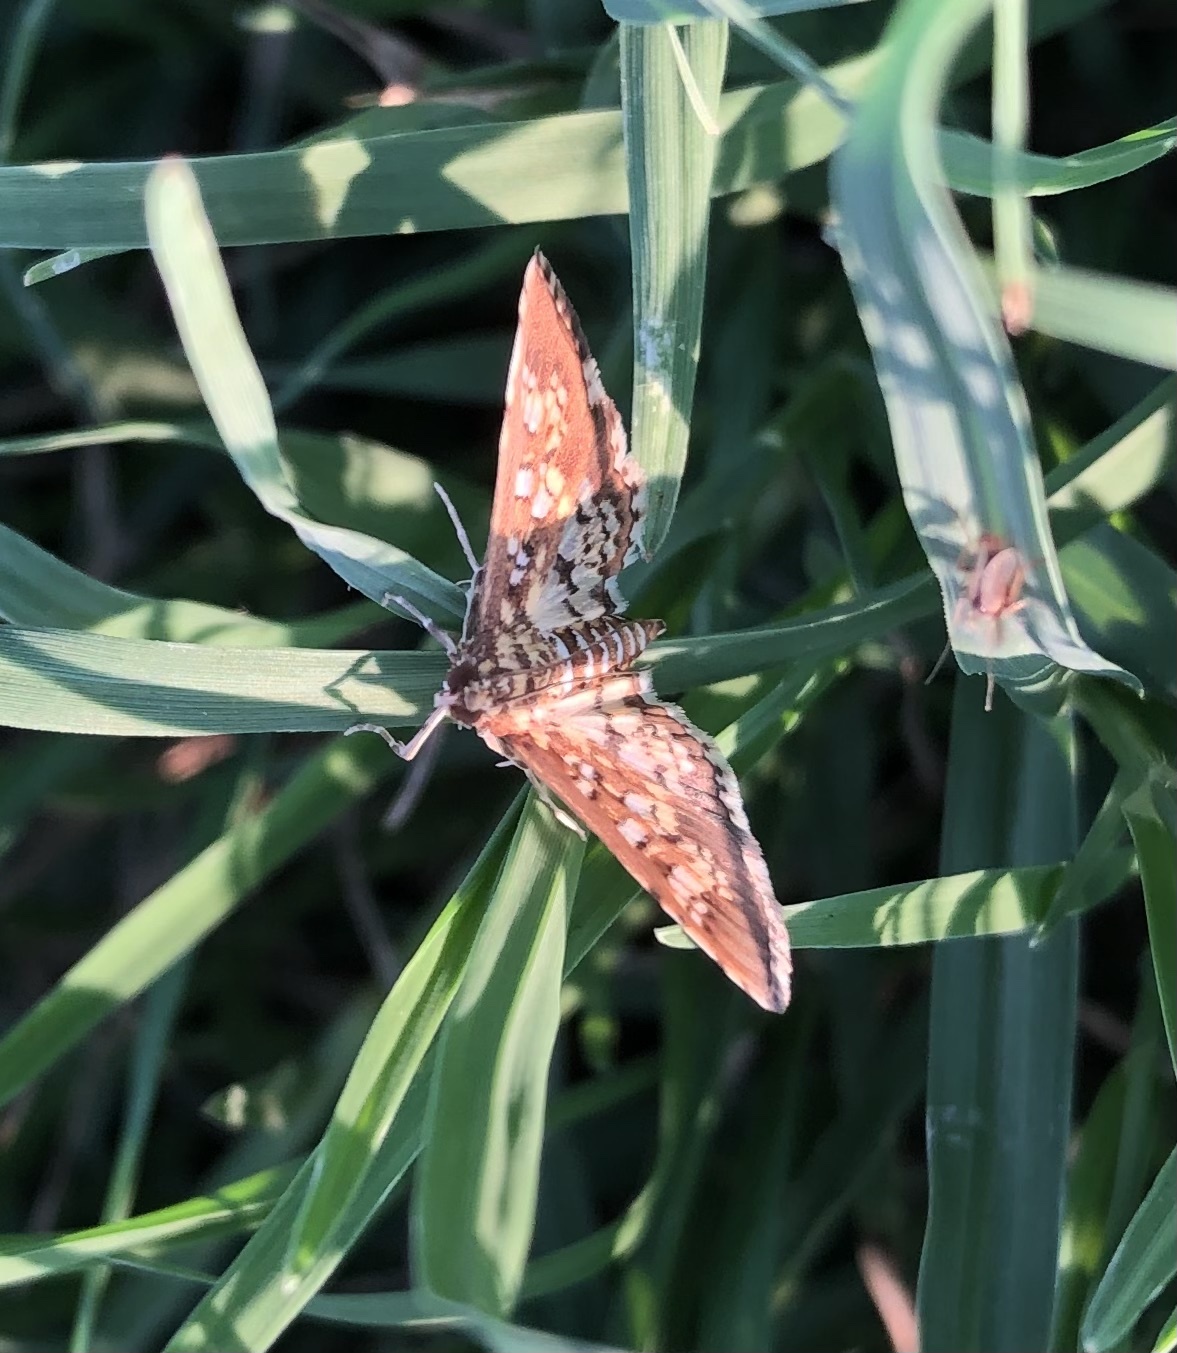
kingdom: Animalia
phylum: Arthropoda
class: Insecta
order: Lepidoptera
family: Crambidae
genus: Samea
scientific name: Samea ecclesialis
